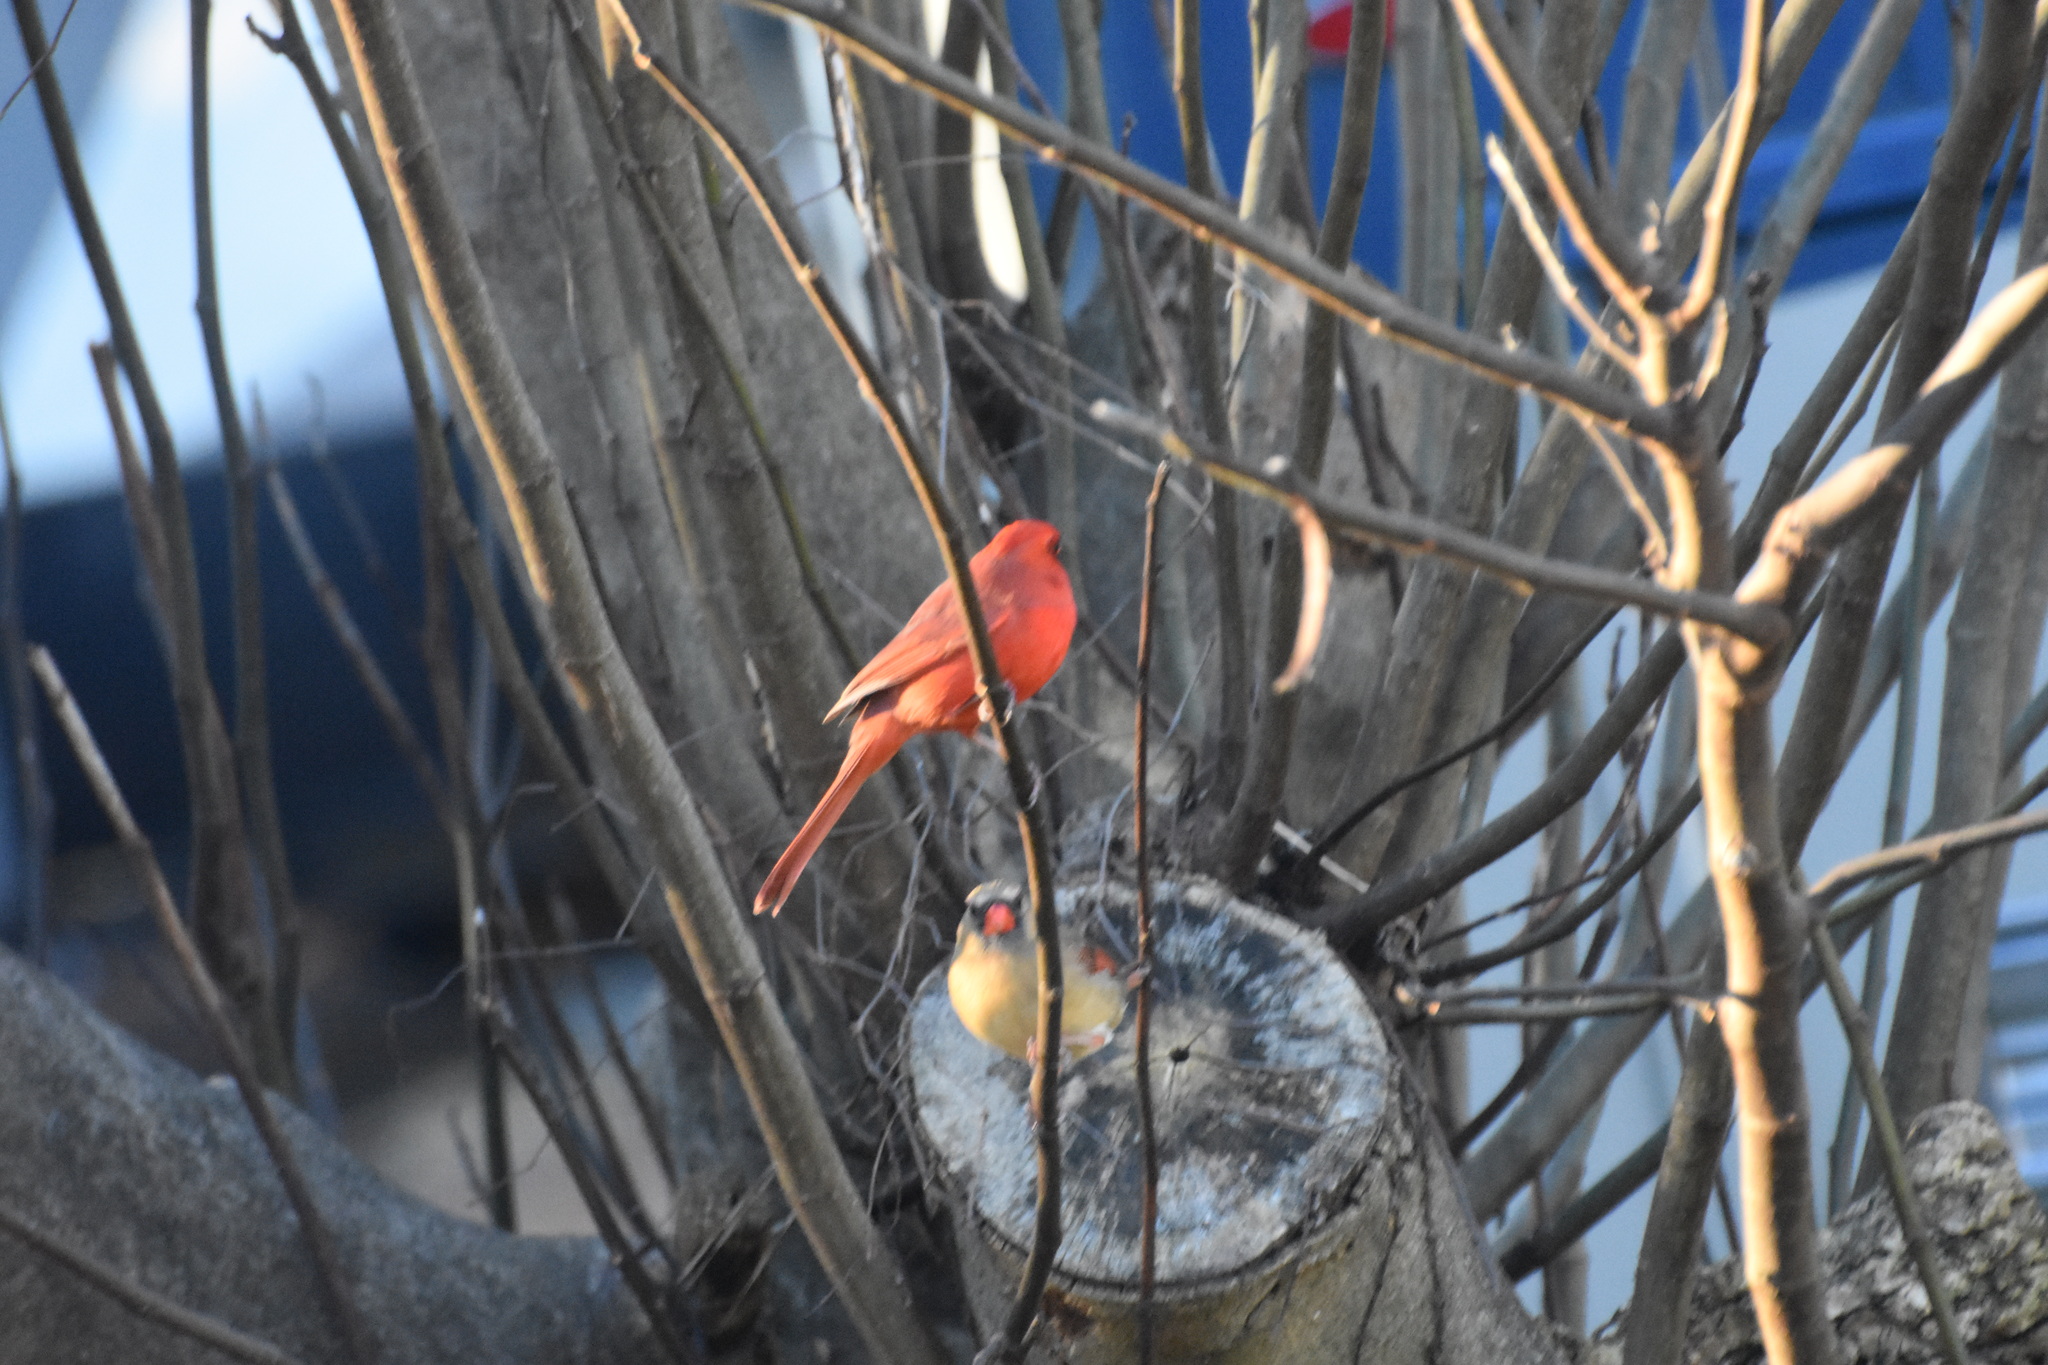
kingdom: Animalia
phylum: Chordata
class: Aves
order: Passeriformes
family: Cardinalidae
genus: Cardinalis
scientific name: Cardinalis cardinalis
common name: Northern cardinal
